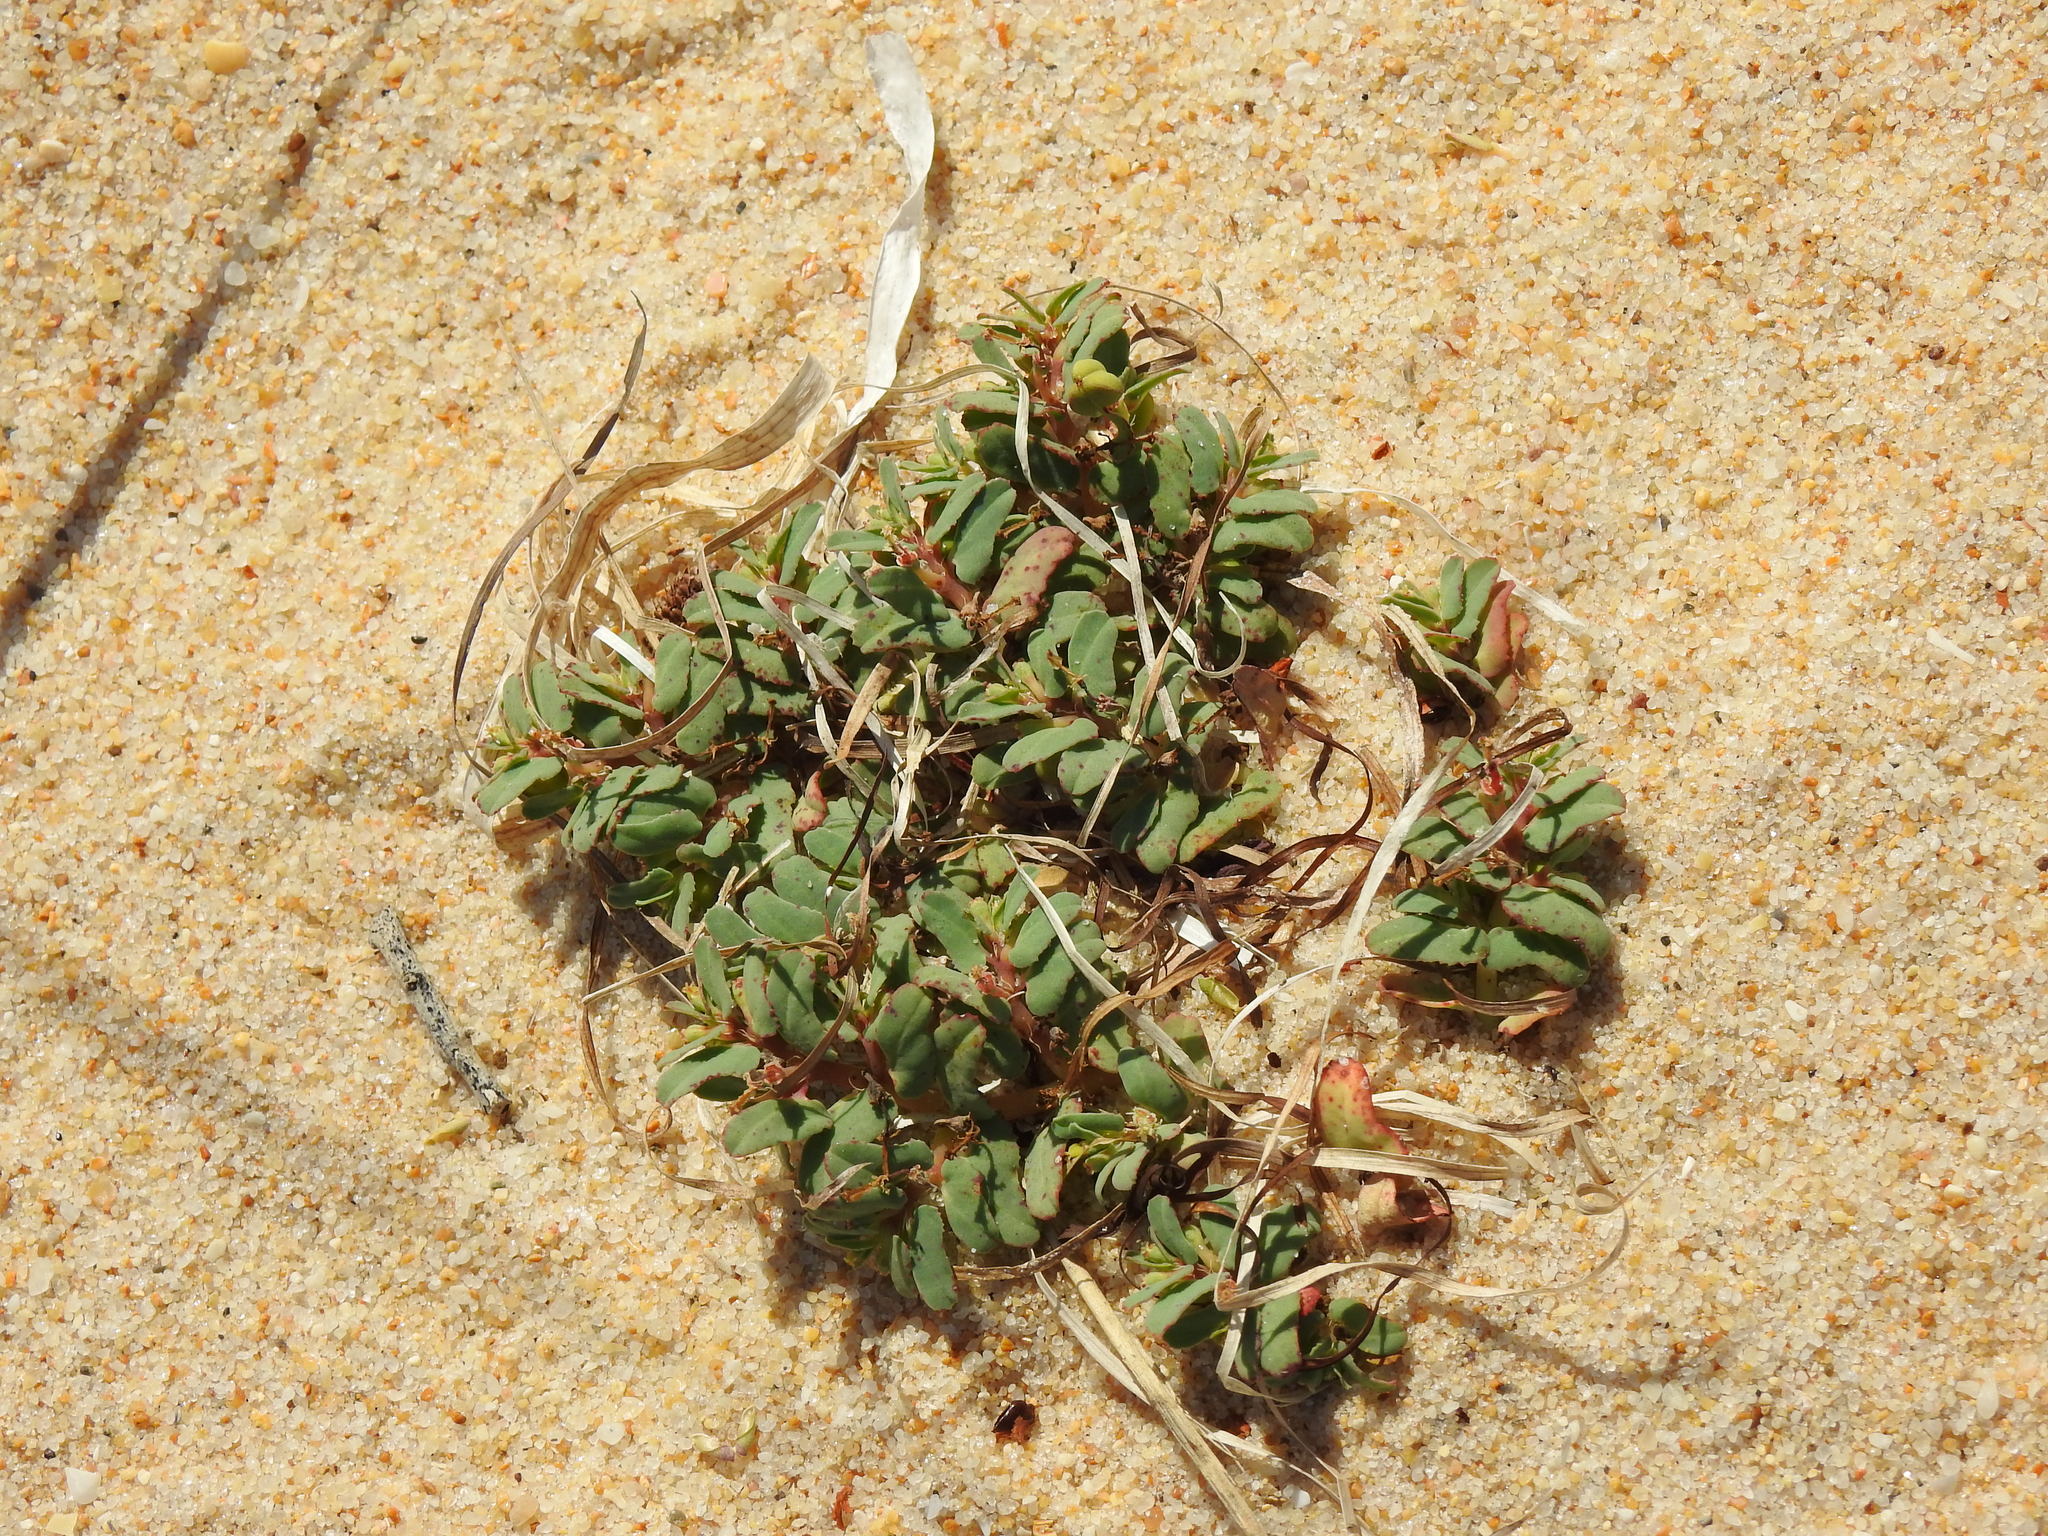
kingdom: Plantae
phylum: Tracheophyta
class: Magnoliopsida
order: Malpighiales
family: Euphorbiaceae
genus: Euphorbia
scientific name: Euphorbia peplis
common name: Purple spurge
